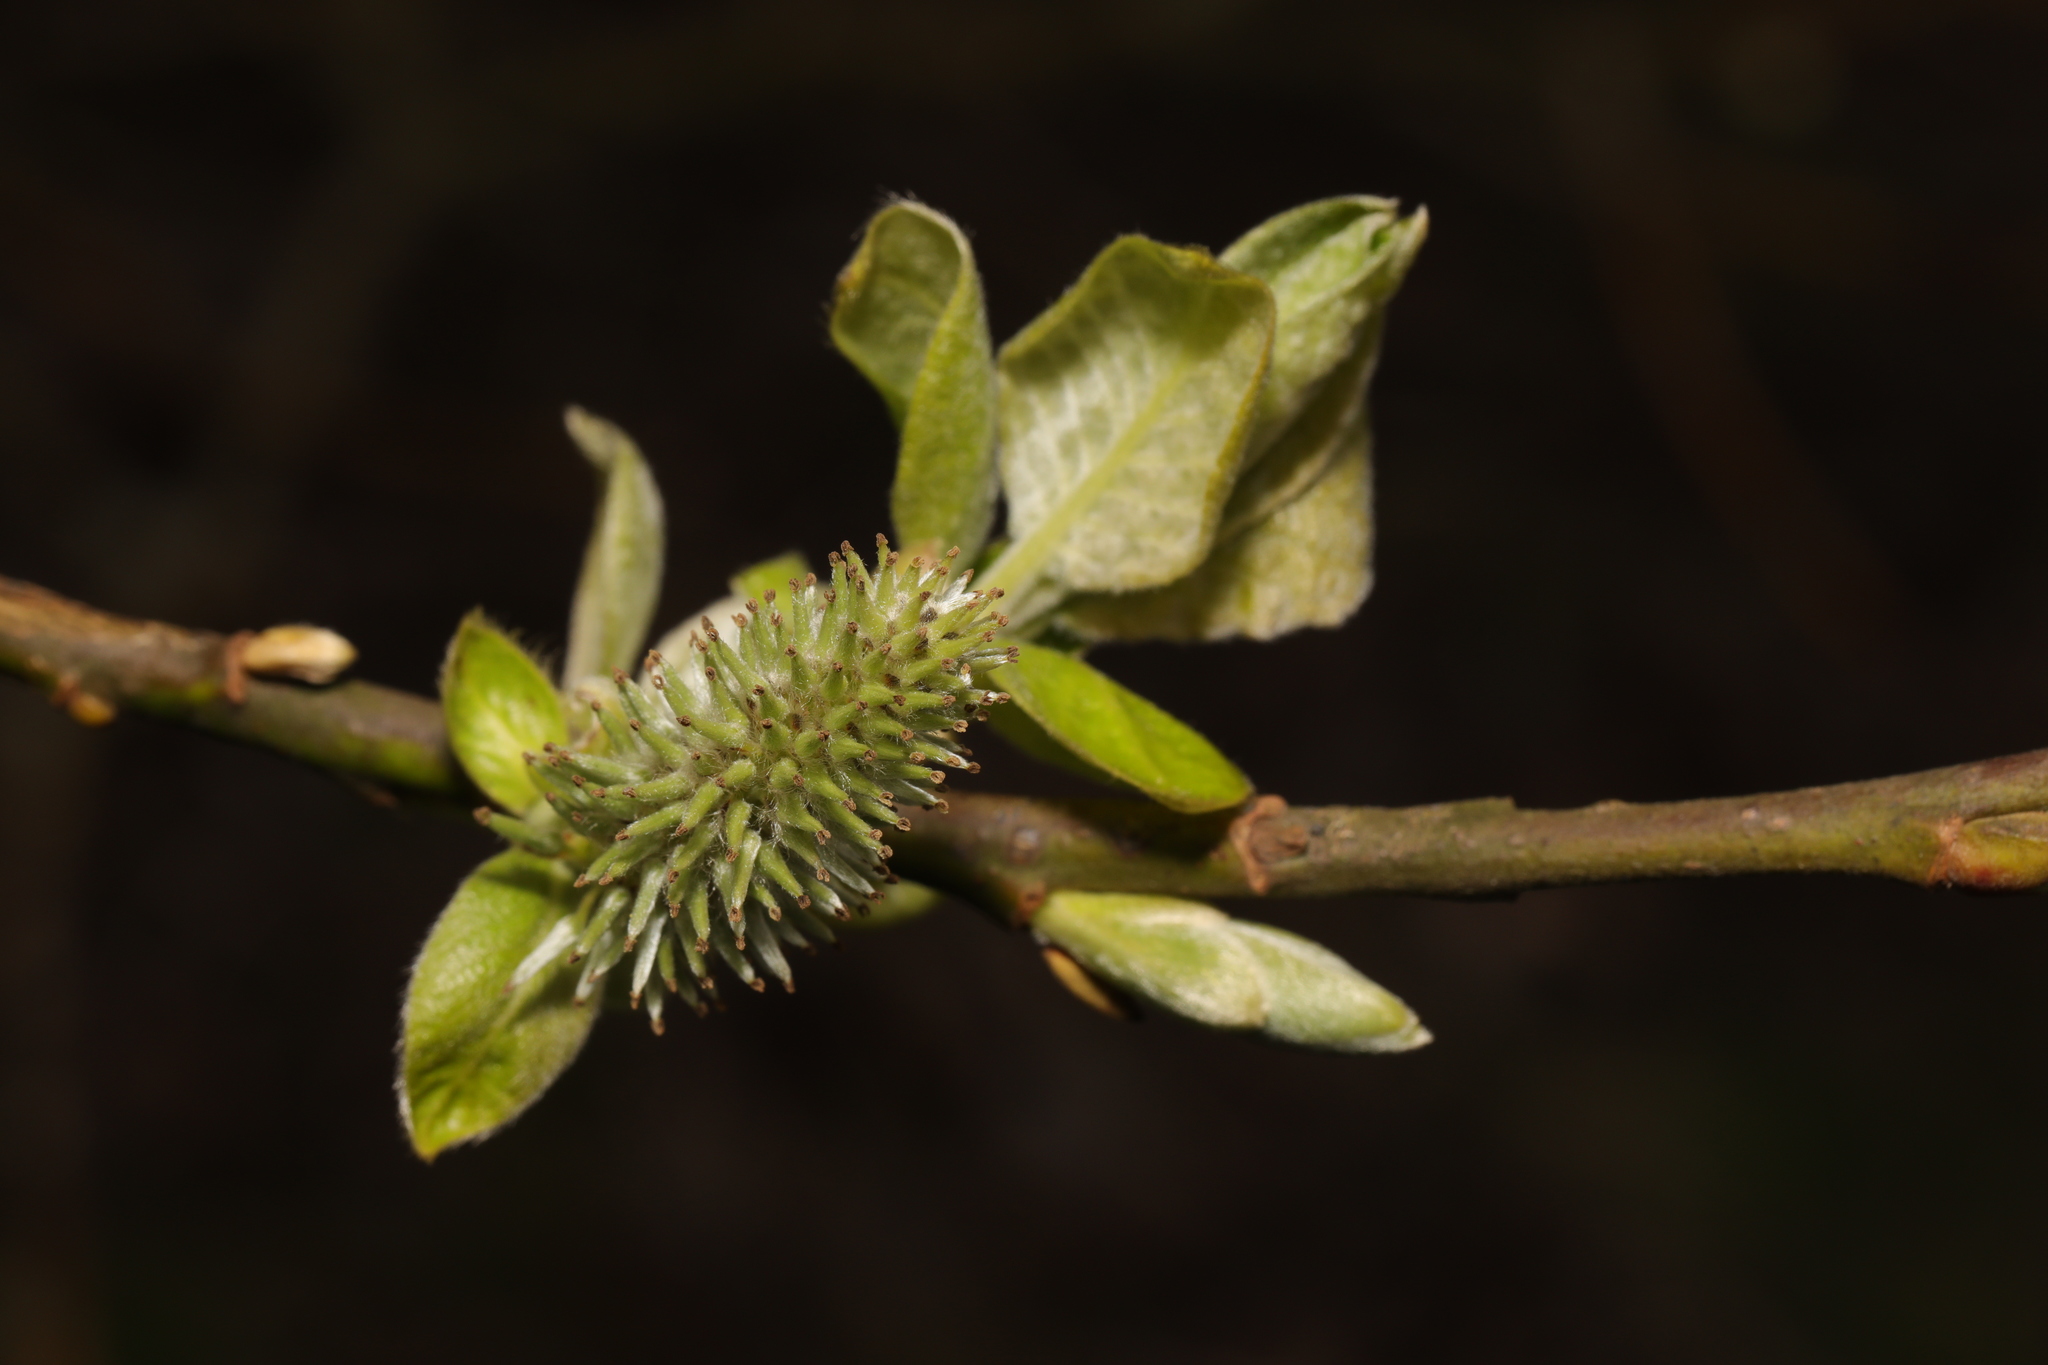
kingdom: Plantae
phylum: Tracheophyta
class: Magnoliopsida
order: Malpighiales
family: Salicaceae
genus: Salix
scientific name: Salix caprea
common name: Goat willow
